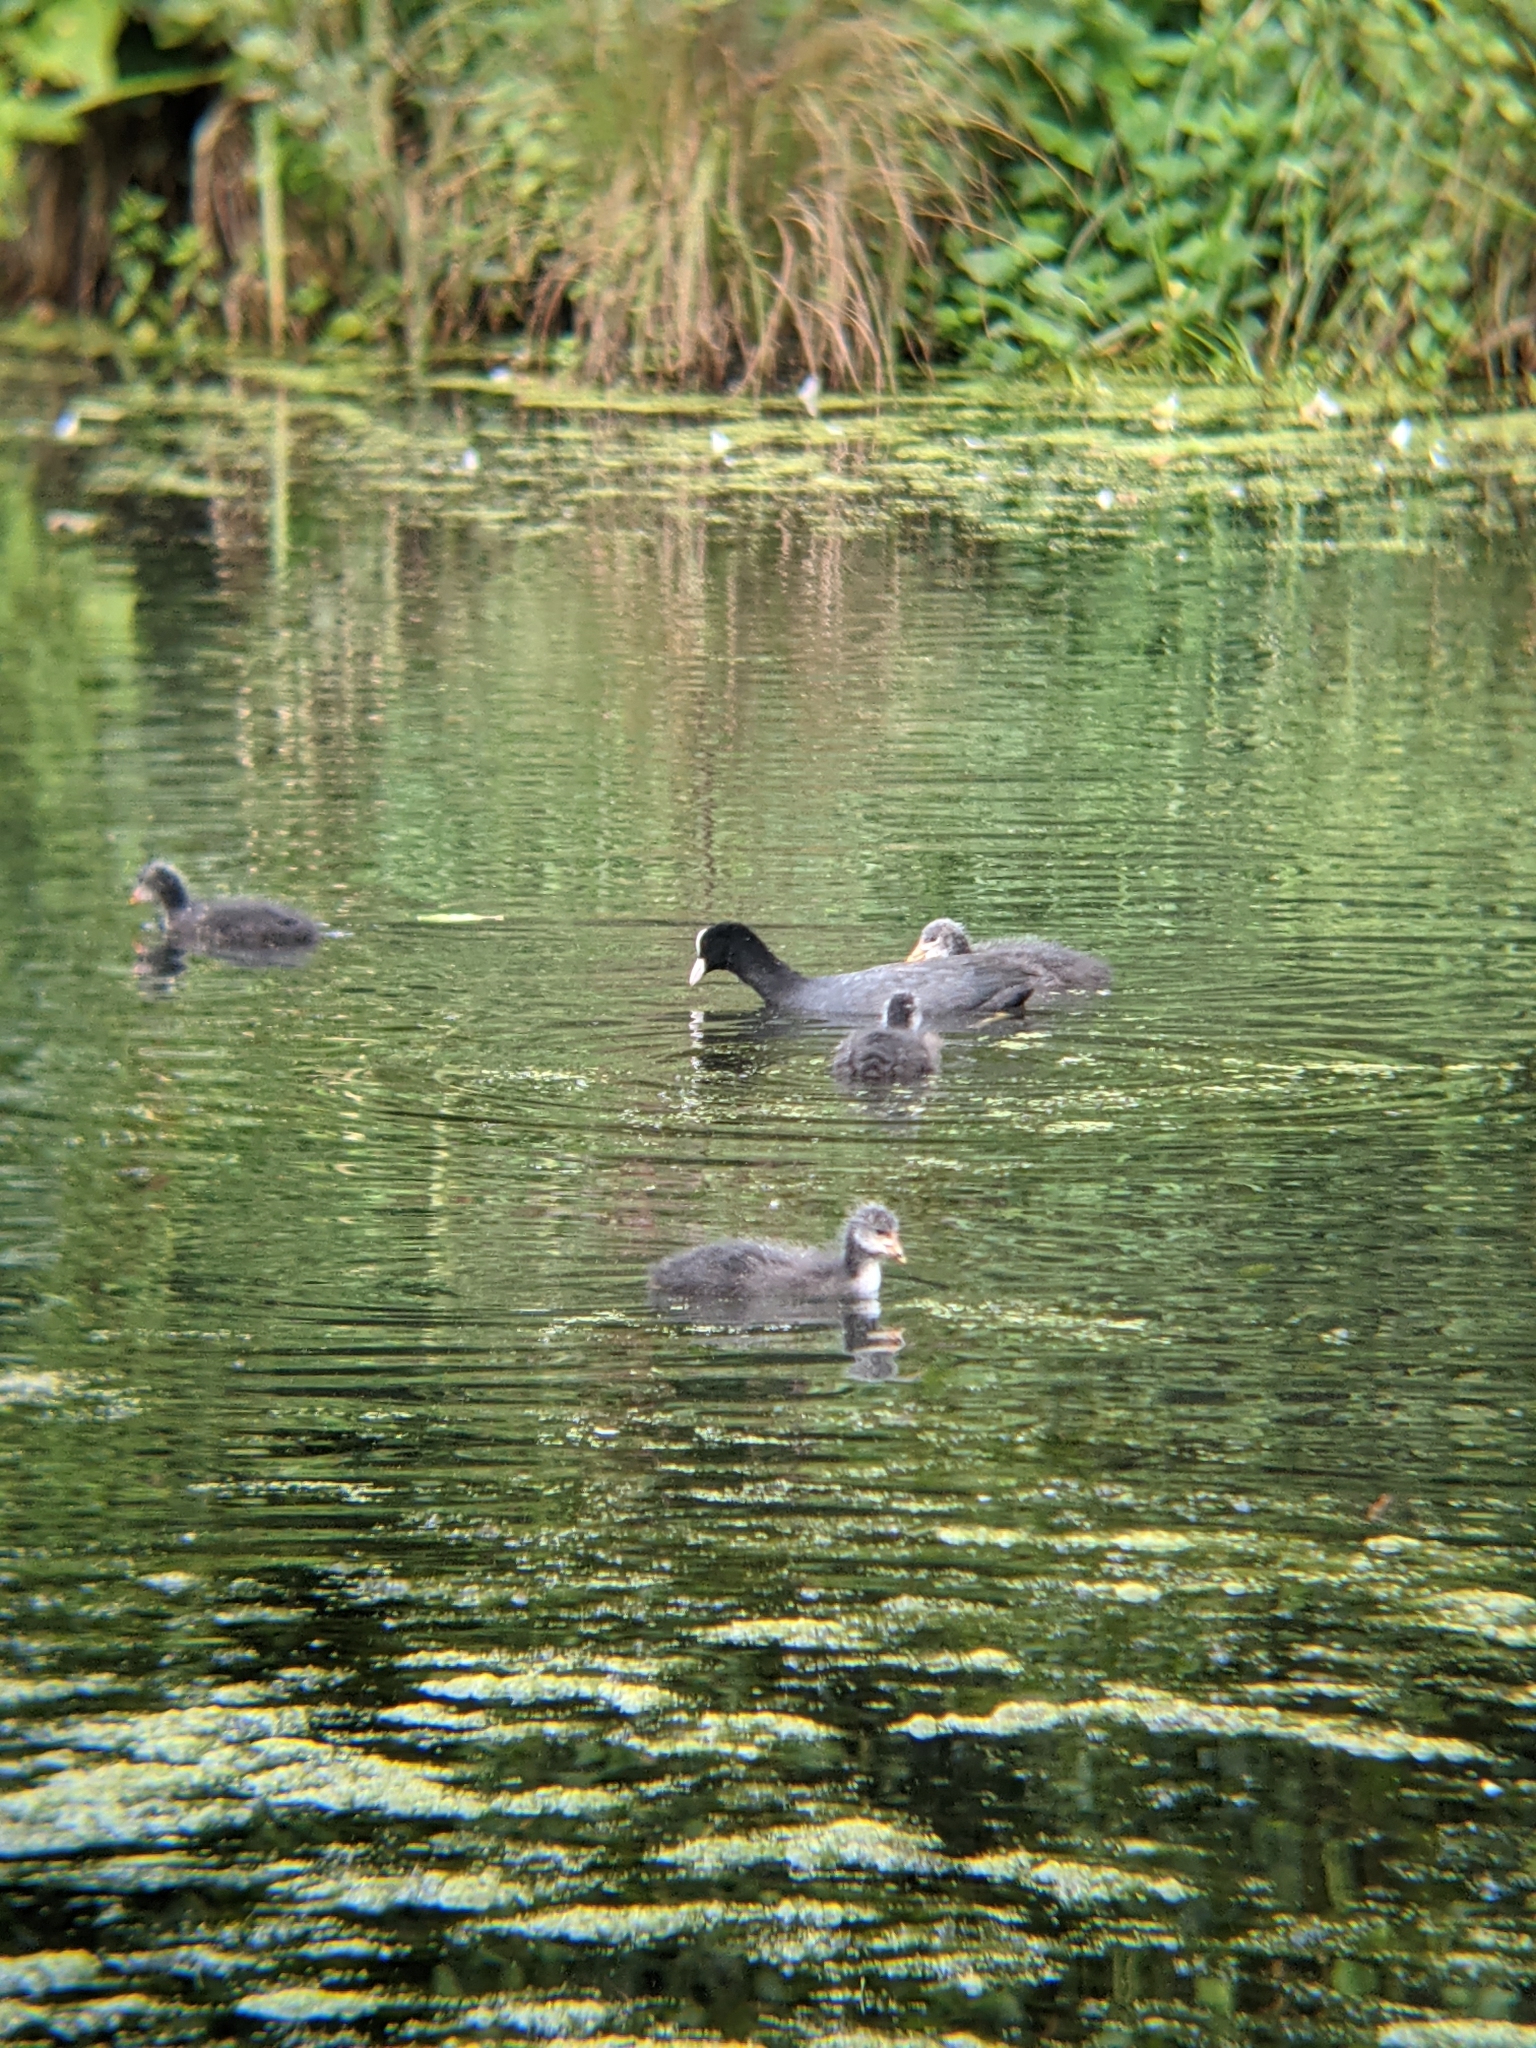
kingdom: Animalia
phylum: Chordata
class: Aves
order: Gruiformes
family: Rallidae
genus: Fulica
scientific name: Fulica atra
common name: Eurasian coot
